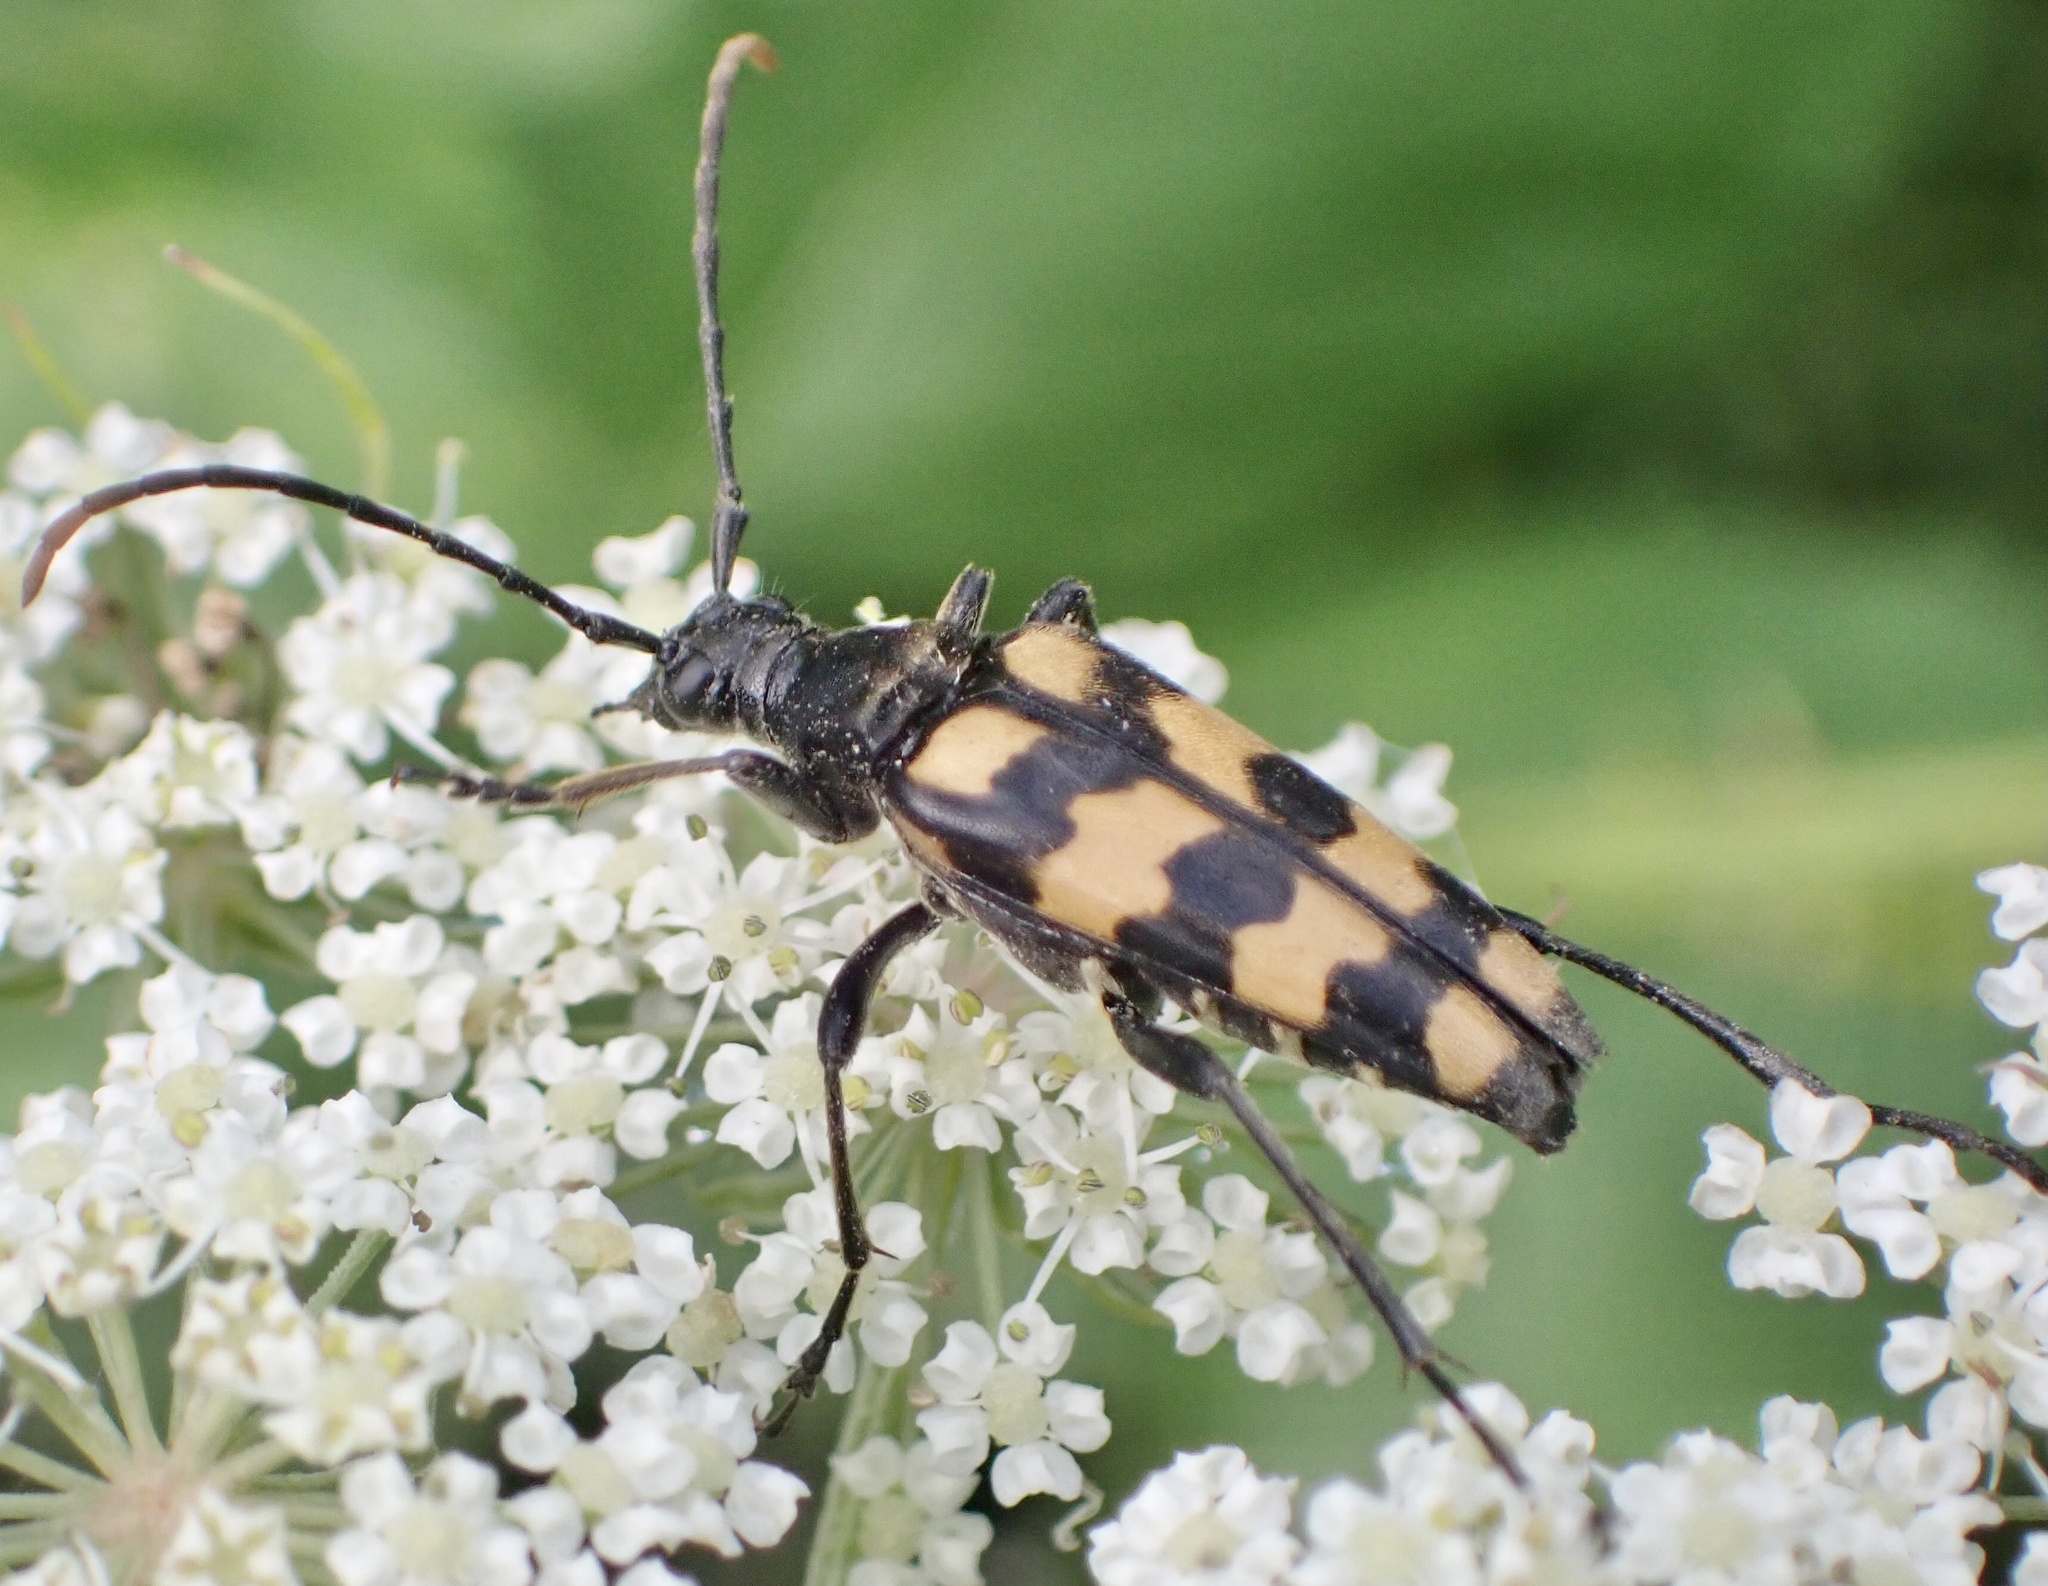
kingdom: Animalia
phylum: Arthropoda
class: Insecta
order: Coleoptera
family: Cerambycidae
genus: Leptura
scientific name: Leptura quadrifasciata
